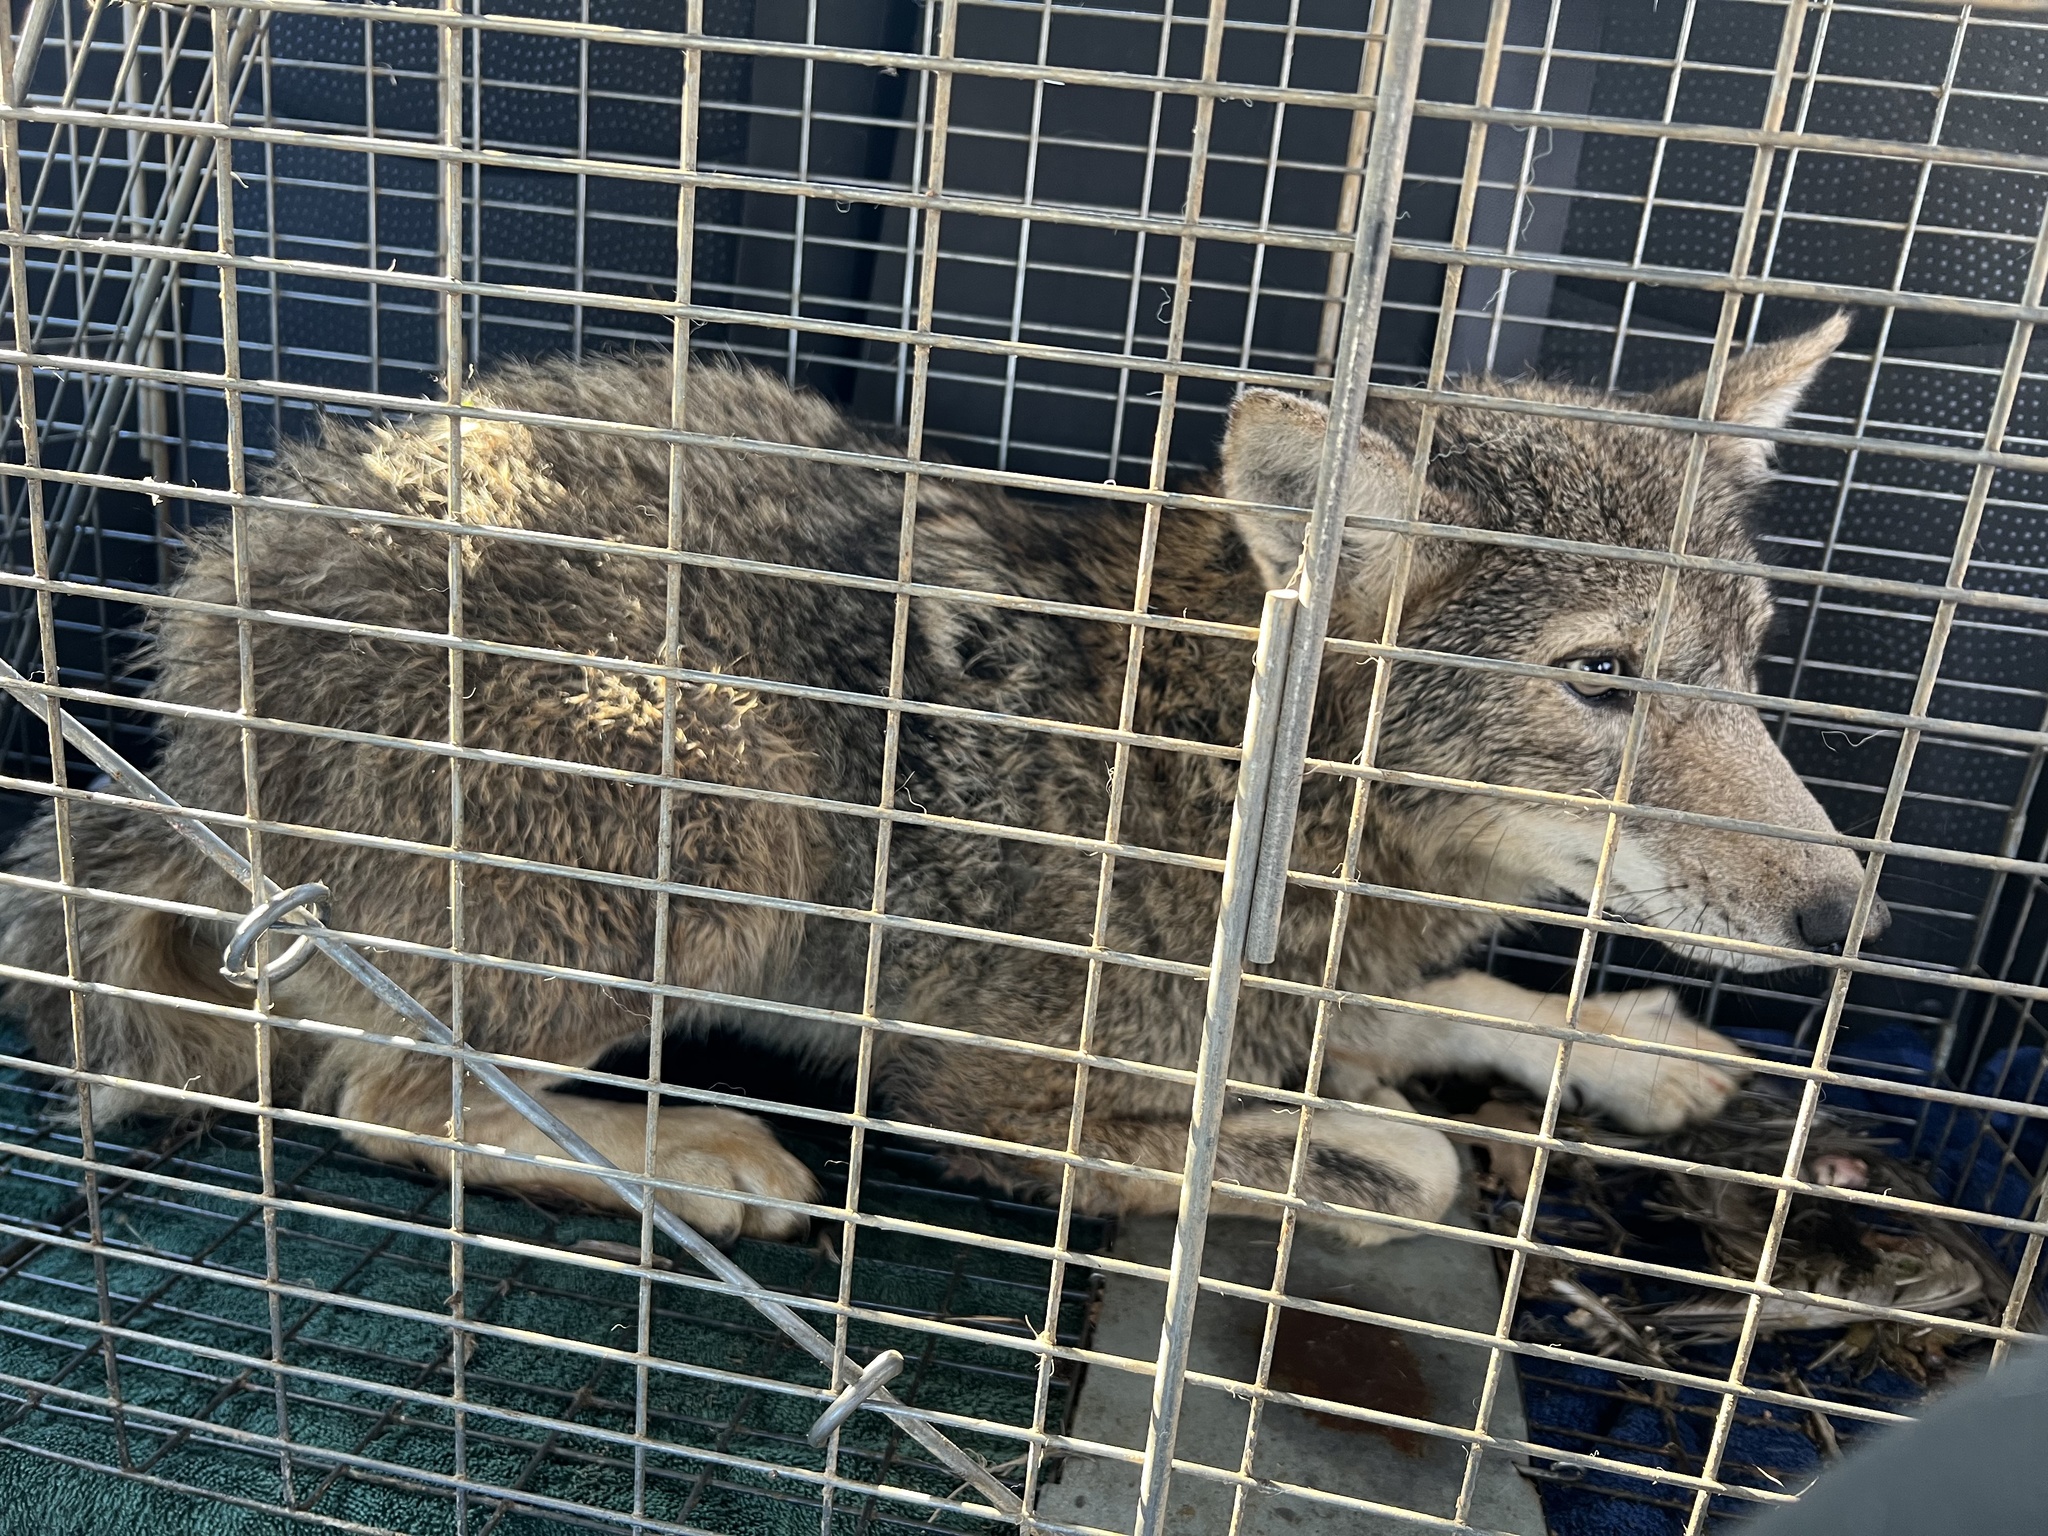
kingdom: Animalia
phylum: Chordata
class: Mammalia
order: Carnivora
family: Canidae
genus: Canis
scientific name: Canis latrans
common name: Coyote
